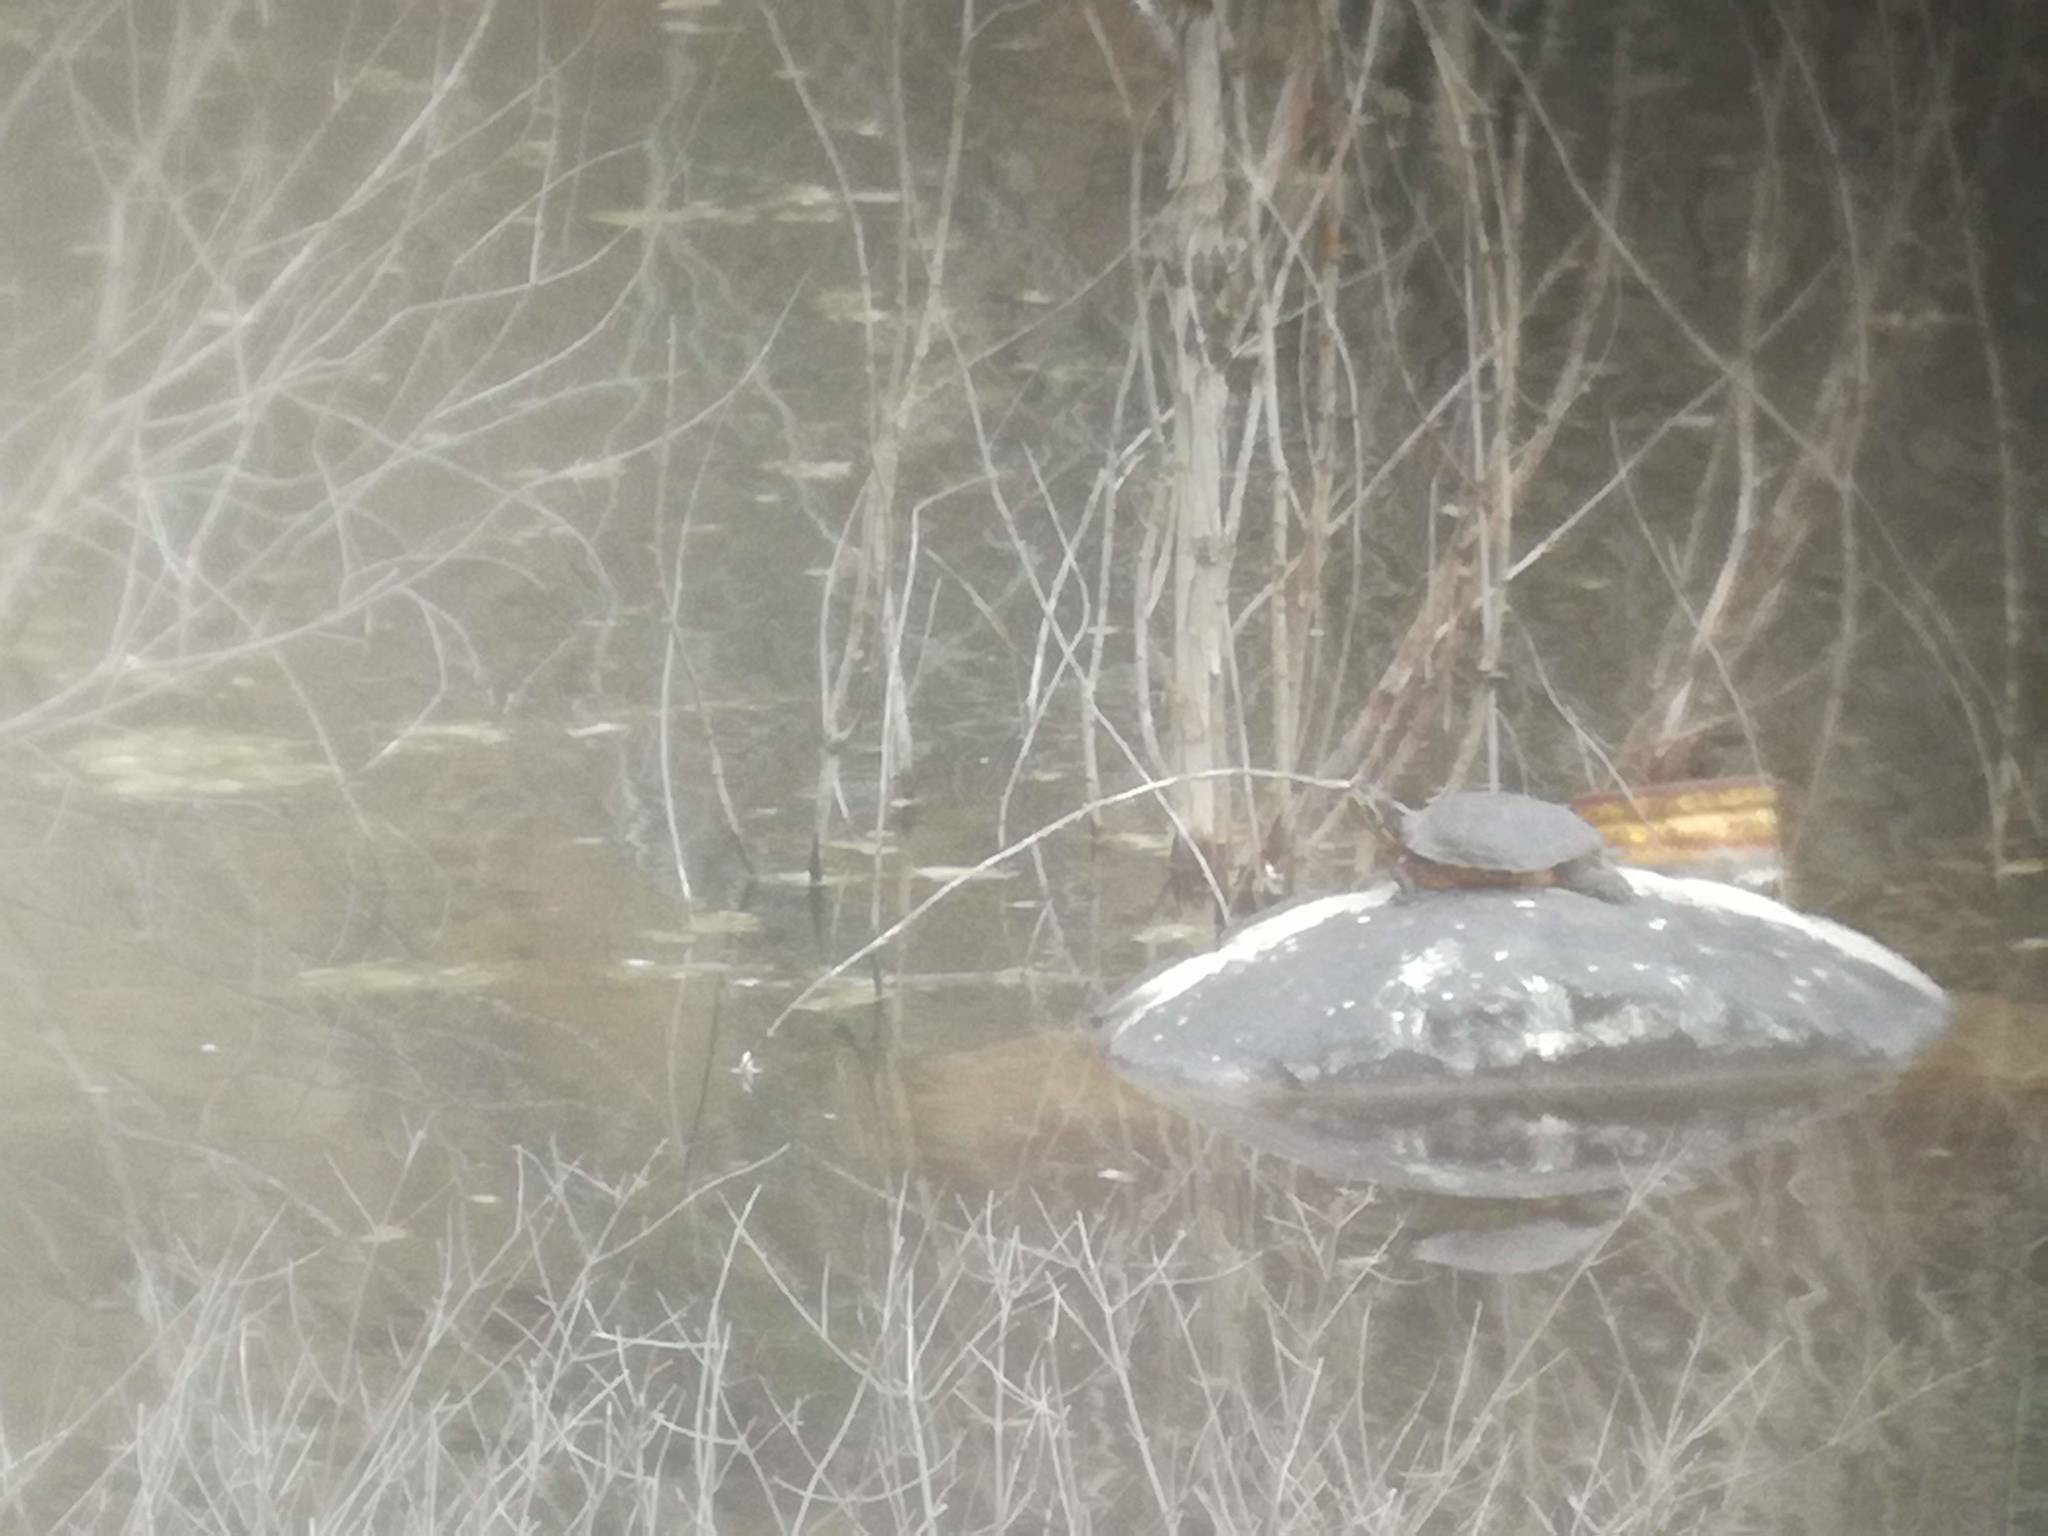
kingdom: Animalia
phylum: Chordata
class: Testudines
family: Emydidae
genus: Trachemys
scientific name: Trachemys scripta
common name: Slider
